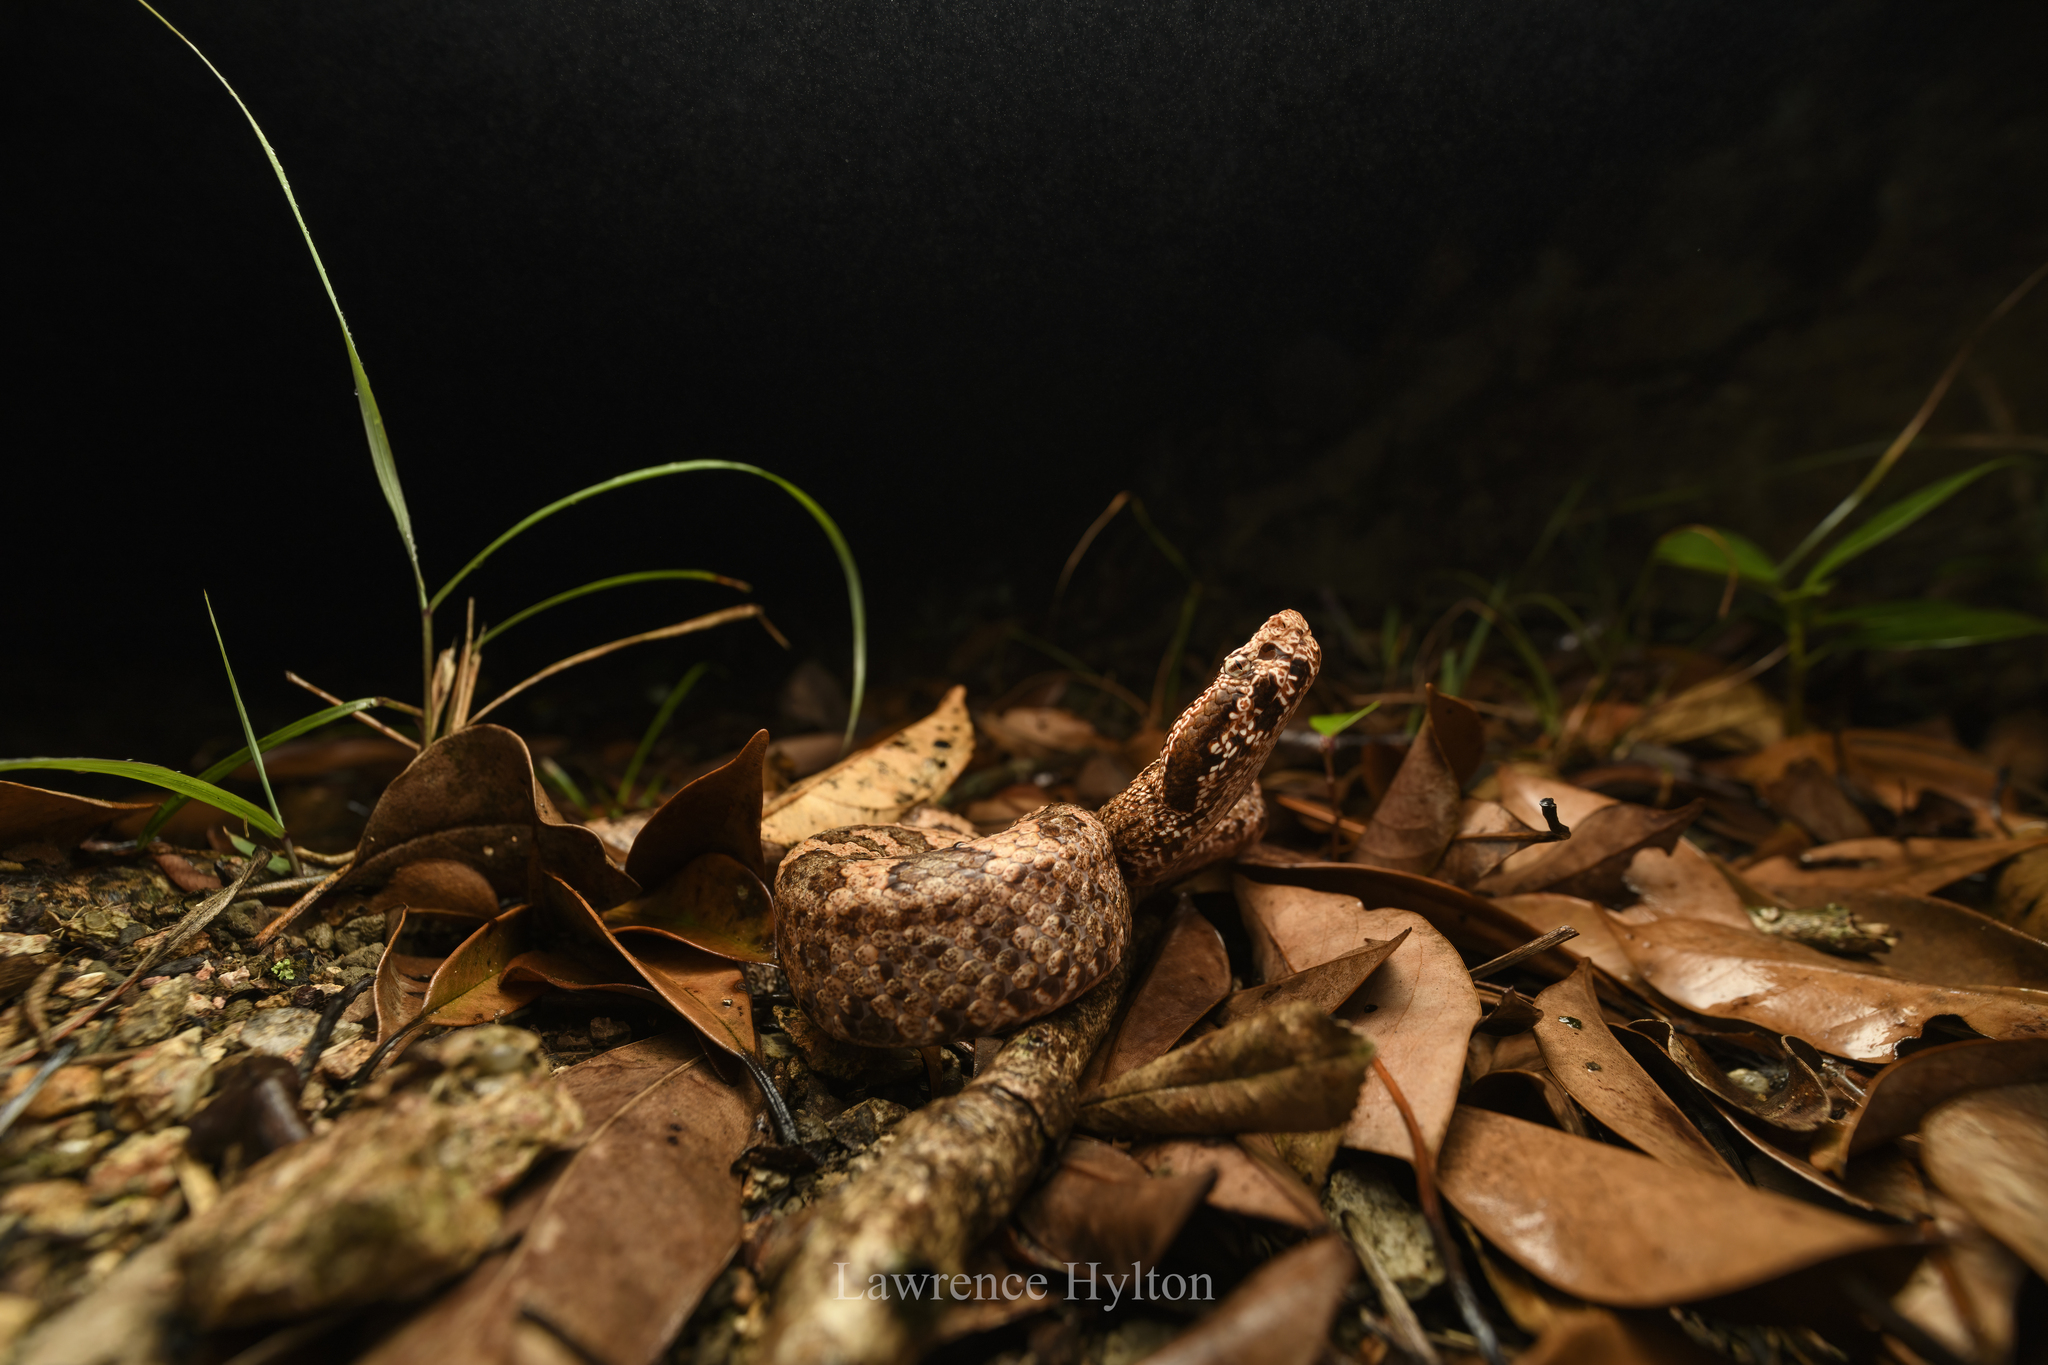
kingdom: Animalia
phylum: Chordata
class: Squamata
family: Viperidae
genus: Ovophis
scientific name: Ovophis tonkinensis
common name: Tonkin pitviper
